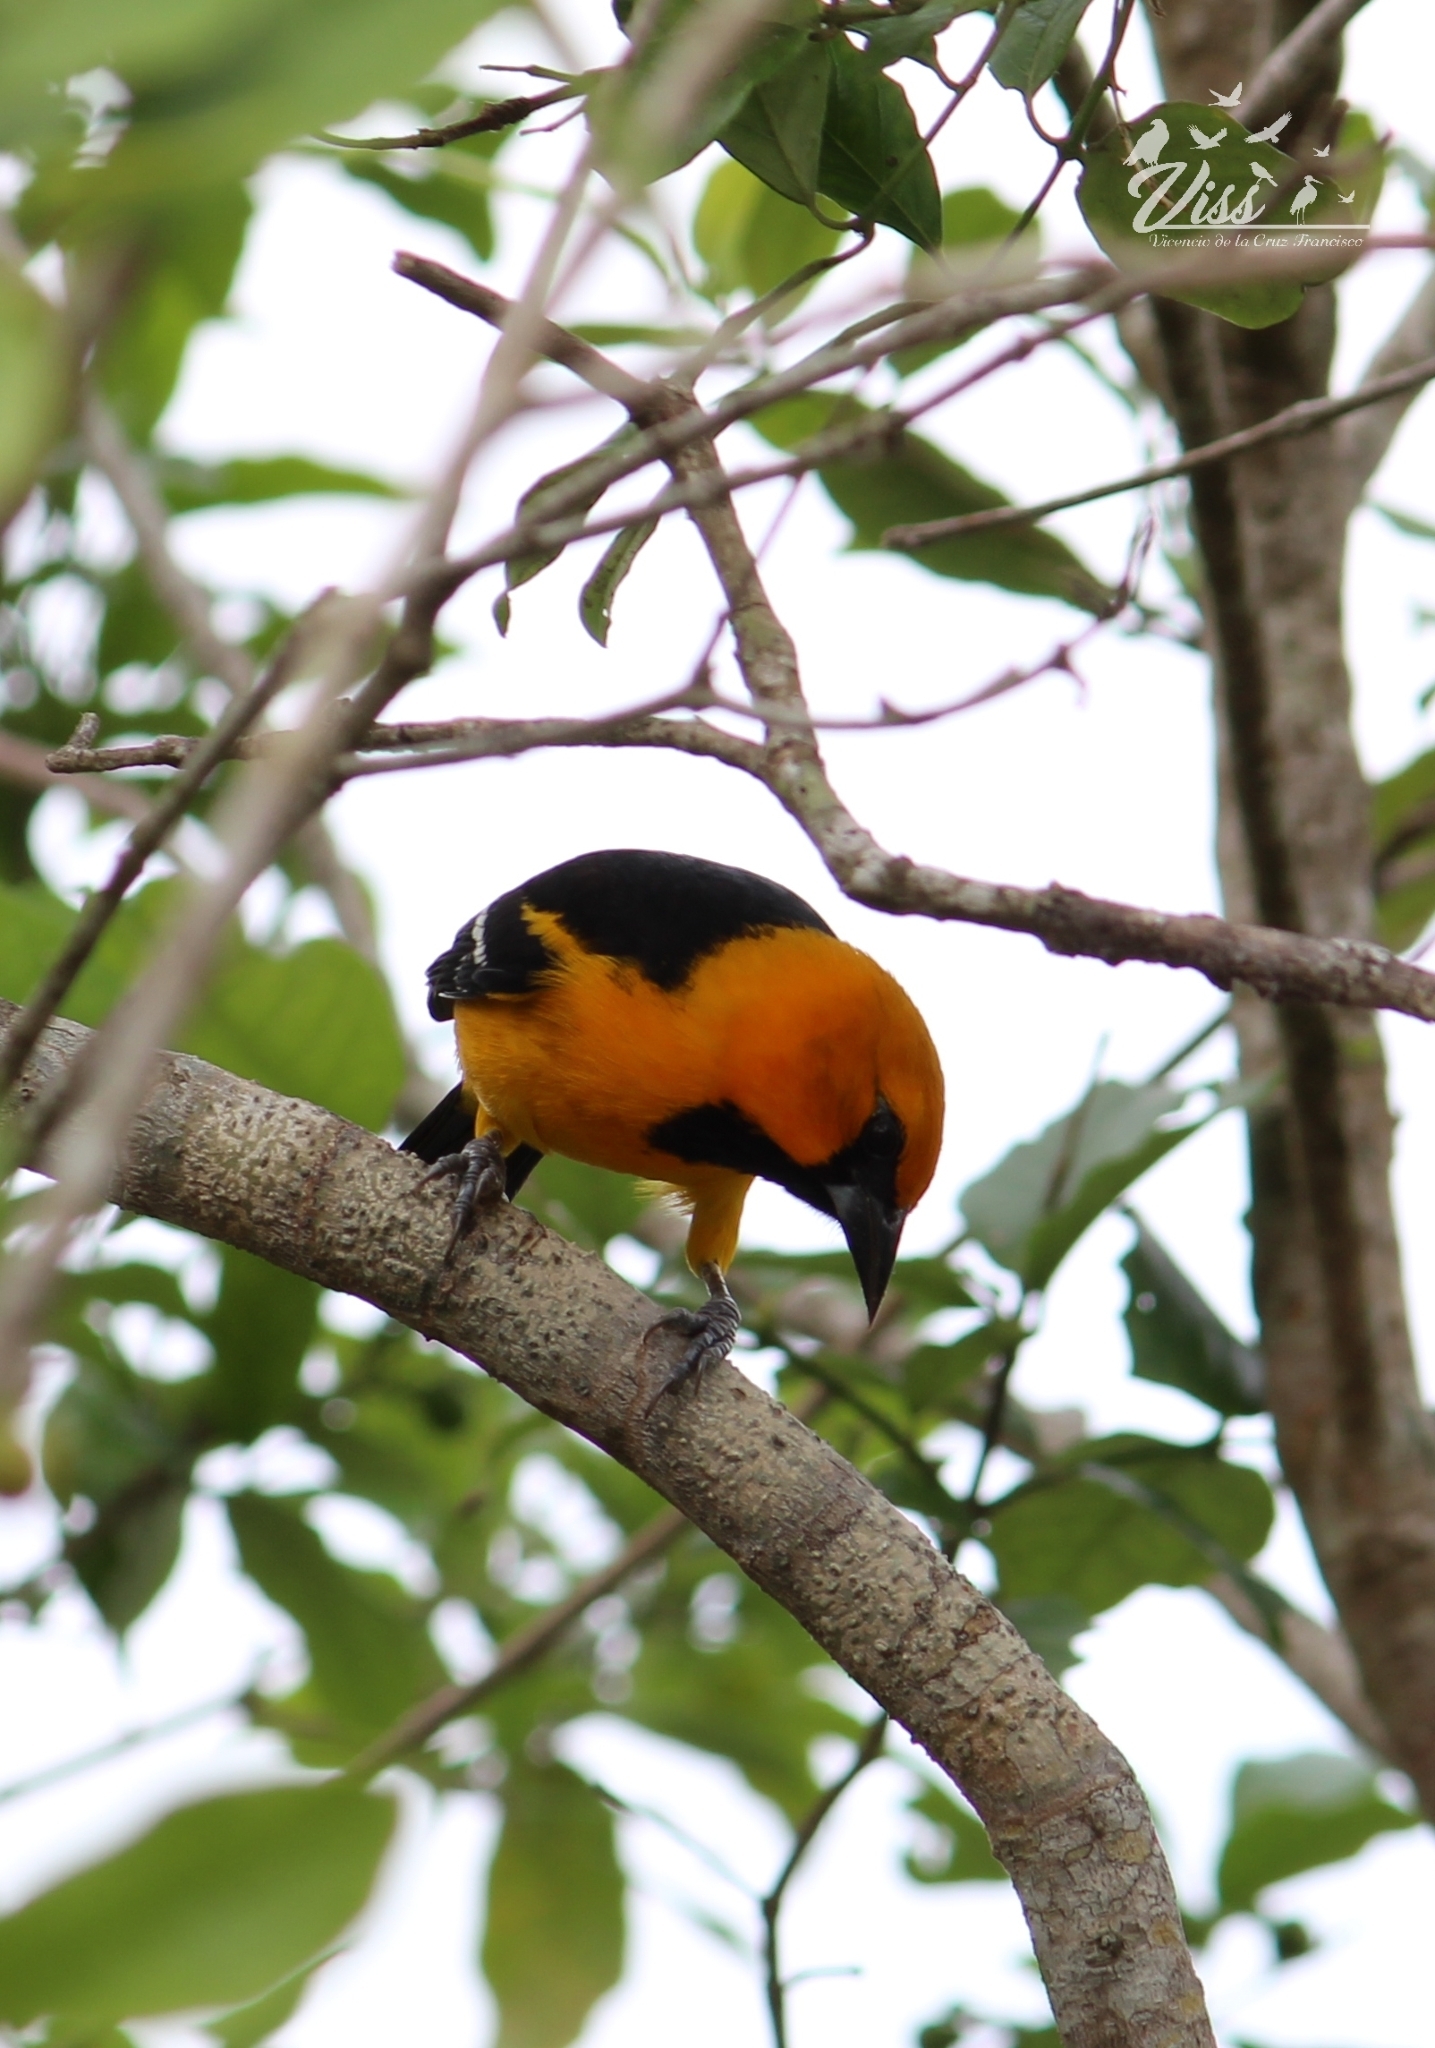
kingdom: Animalia
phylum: Chordata
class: Aves
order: Passeriformes
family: Icteridae
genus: Icterus
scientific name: Icterus gularis
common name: Altamira oriole
